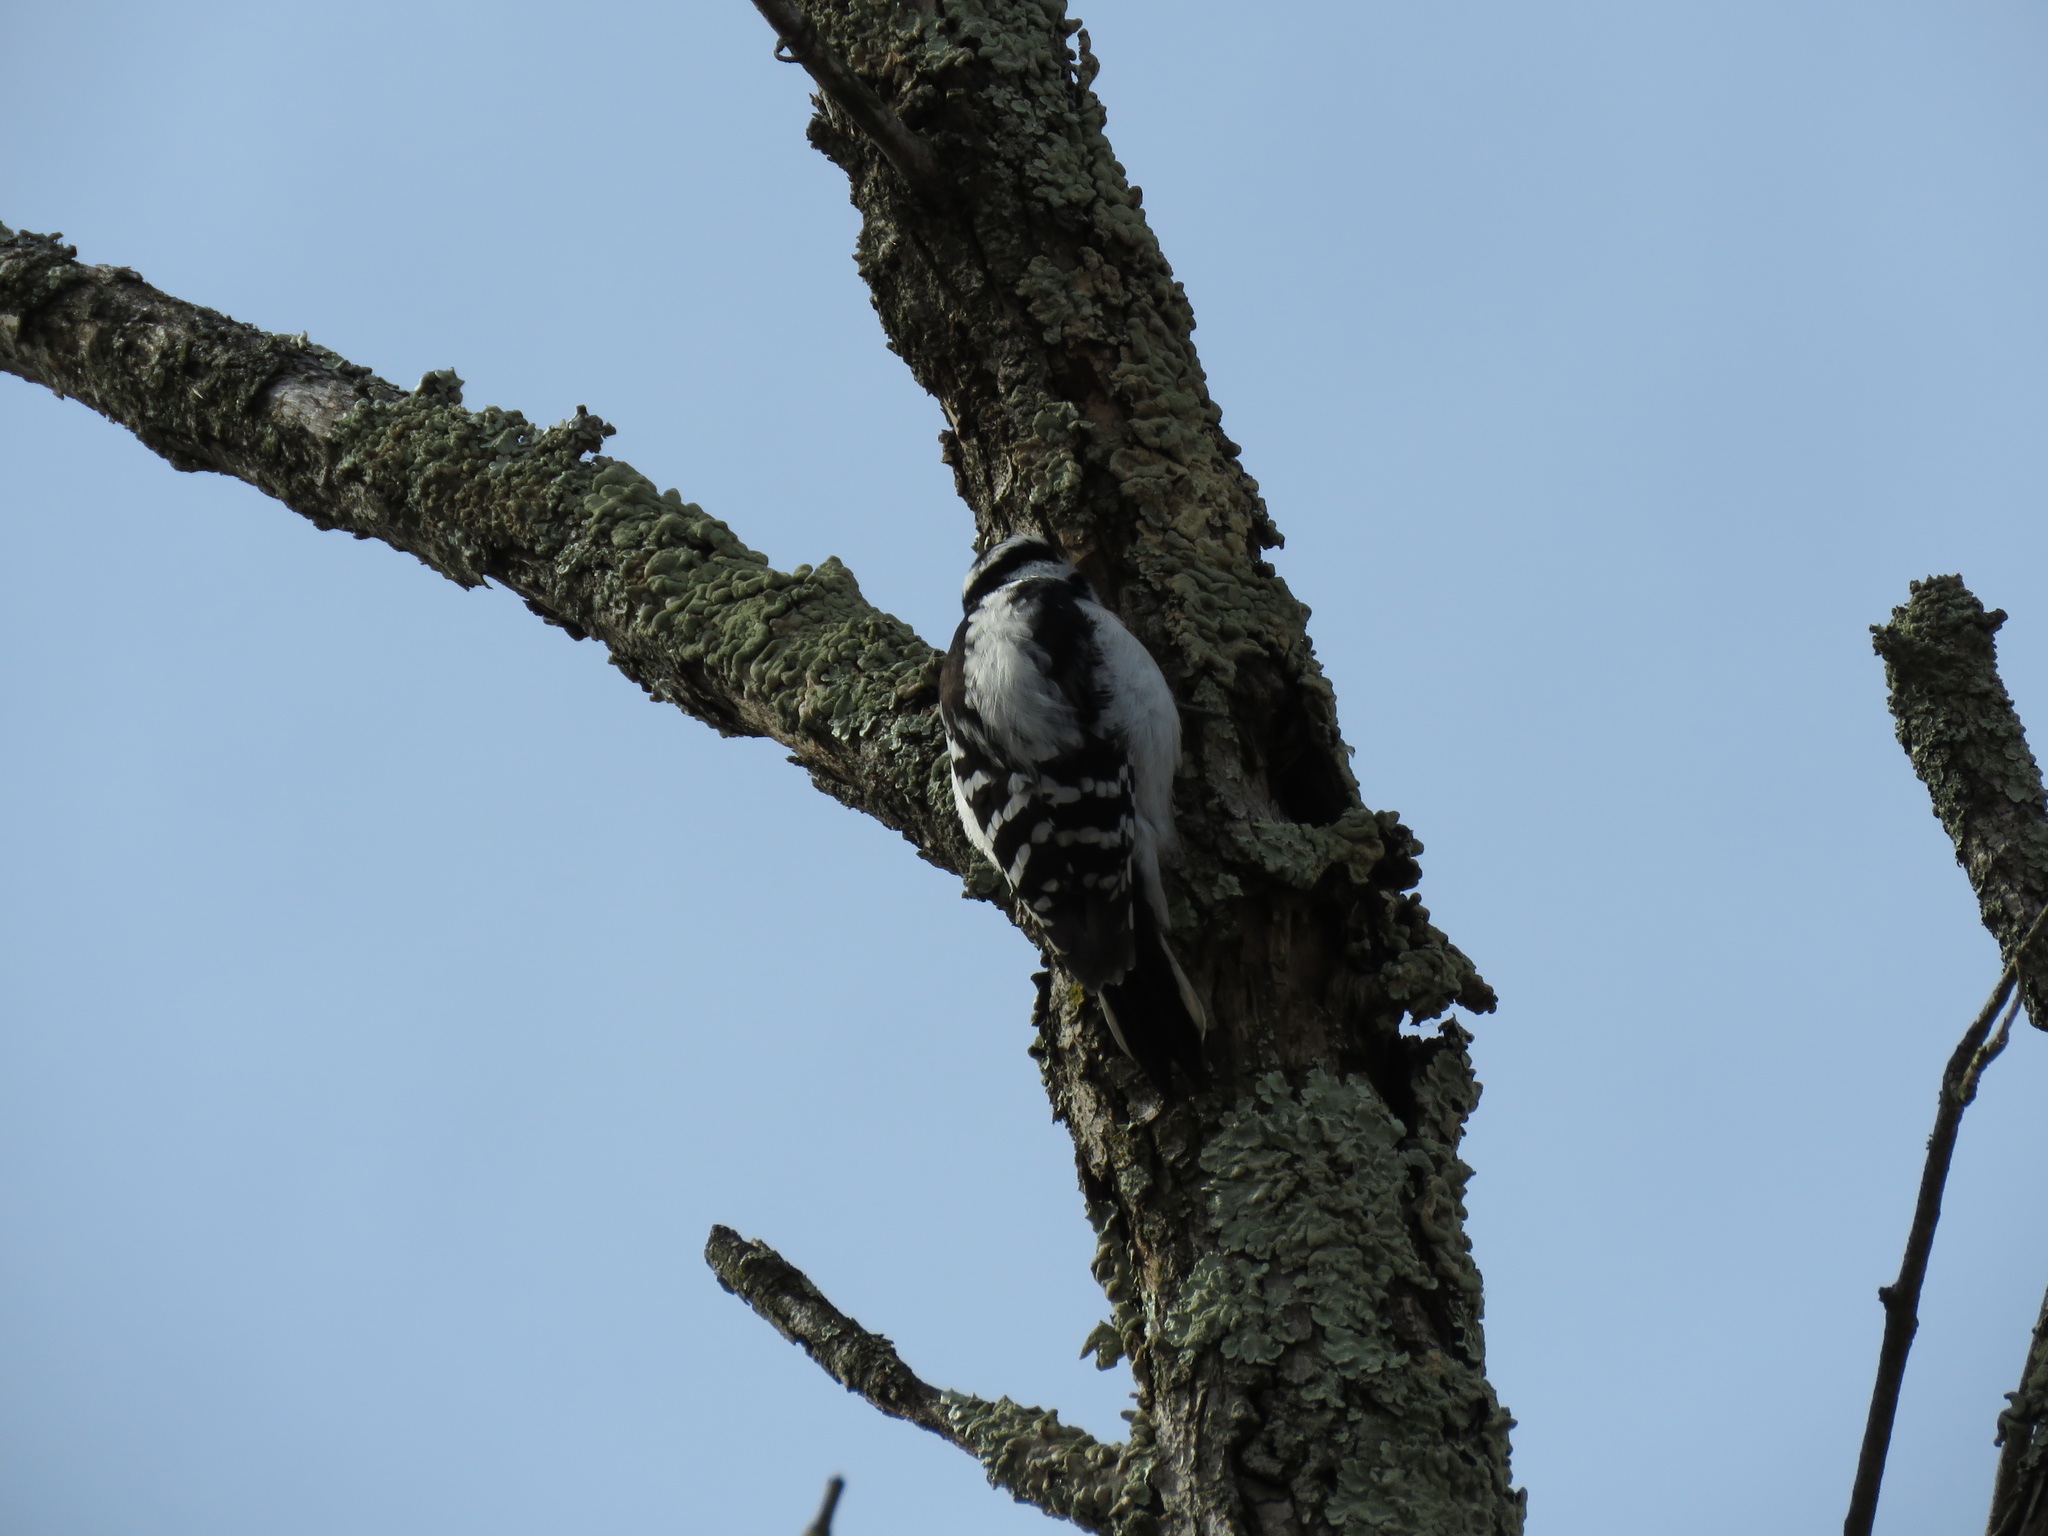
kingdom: Animalia
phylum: Chordata
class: Aves
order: Piciformes
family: Picidae
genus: Leuconotopicus
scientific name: Leuconotopicus villosus
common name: Hairy woodpecker
